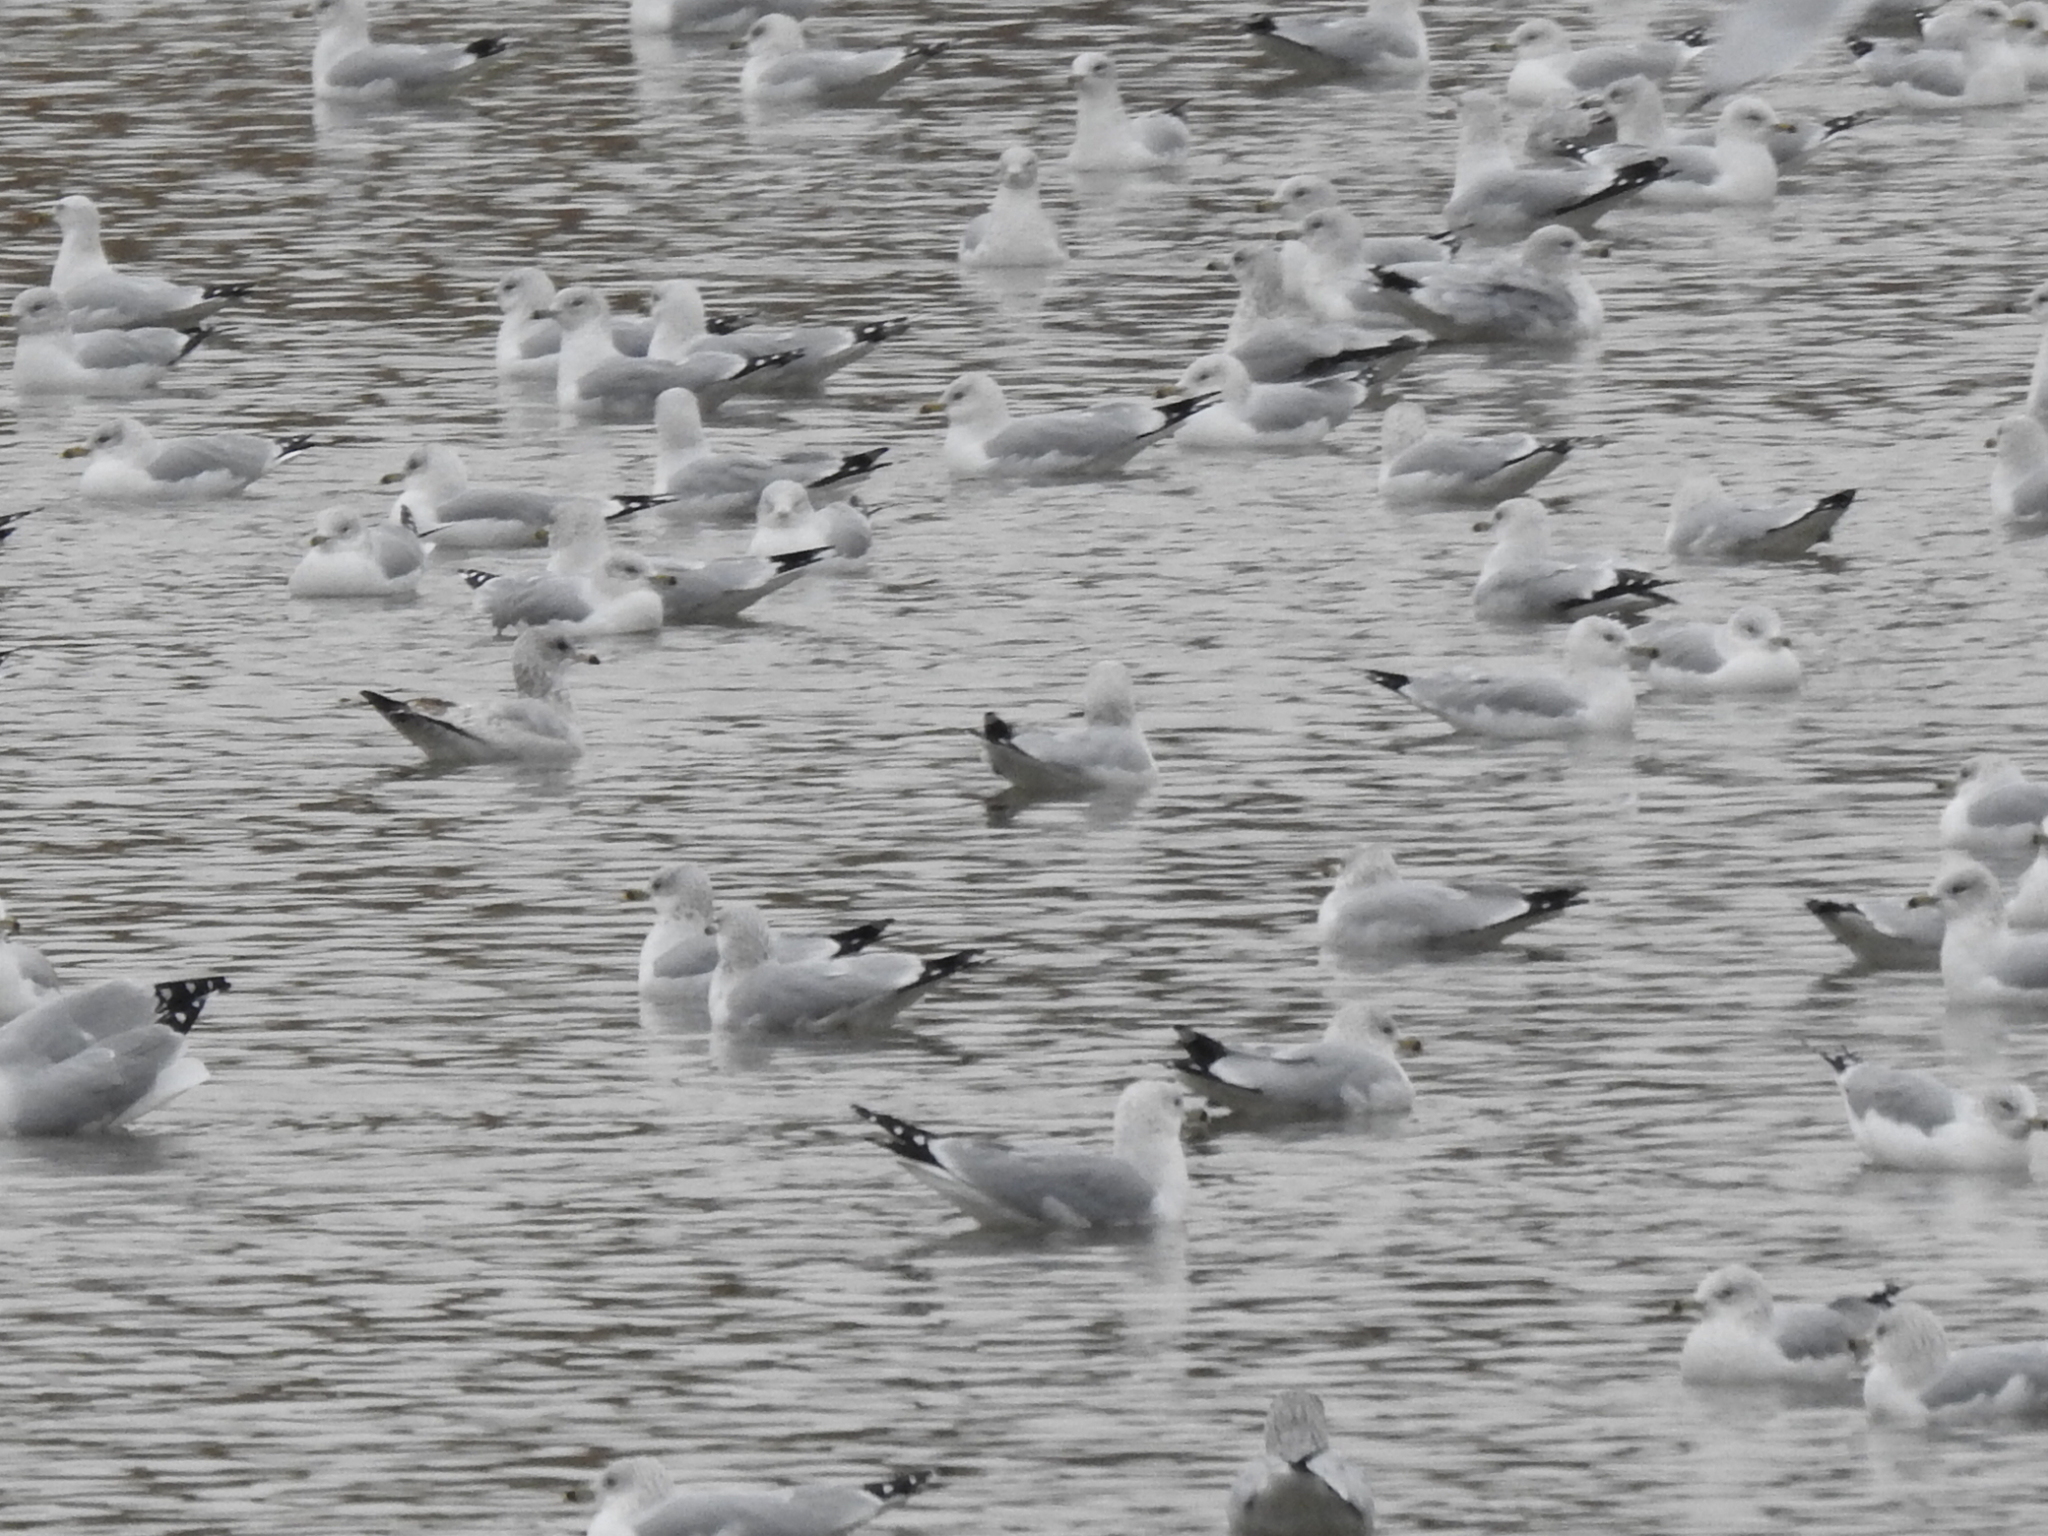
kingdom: Animalia
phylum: Chordata
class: Aves
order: Charadriiformes
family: Laridae
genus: Larus
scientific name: Larus delawarensis
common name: Ring-billed gull
